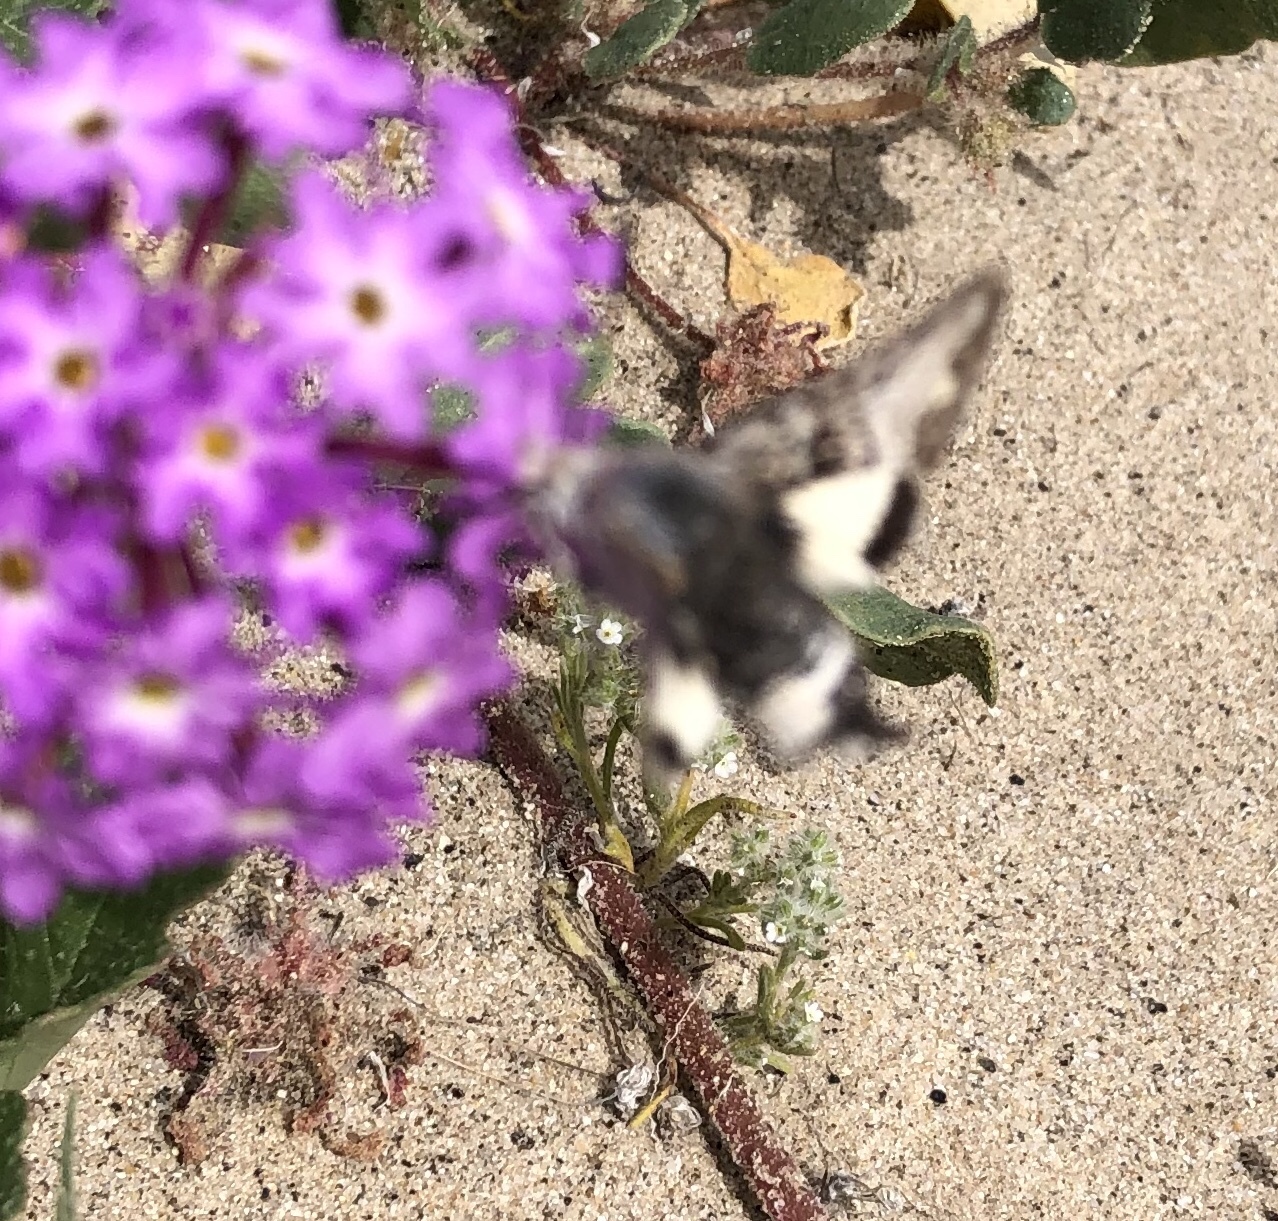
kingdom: Animalia
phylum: Arthropoda
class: Insecta
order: Lepidoptera
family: Sphingidae
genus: Euproserpinus
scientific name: Euproserpinus phaeton
